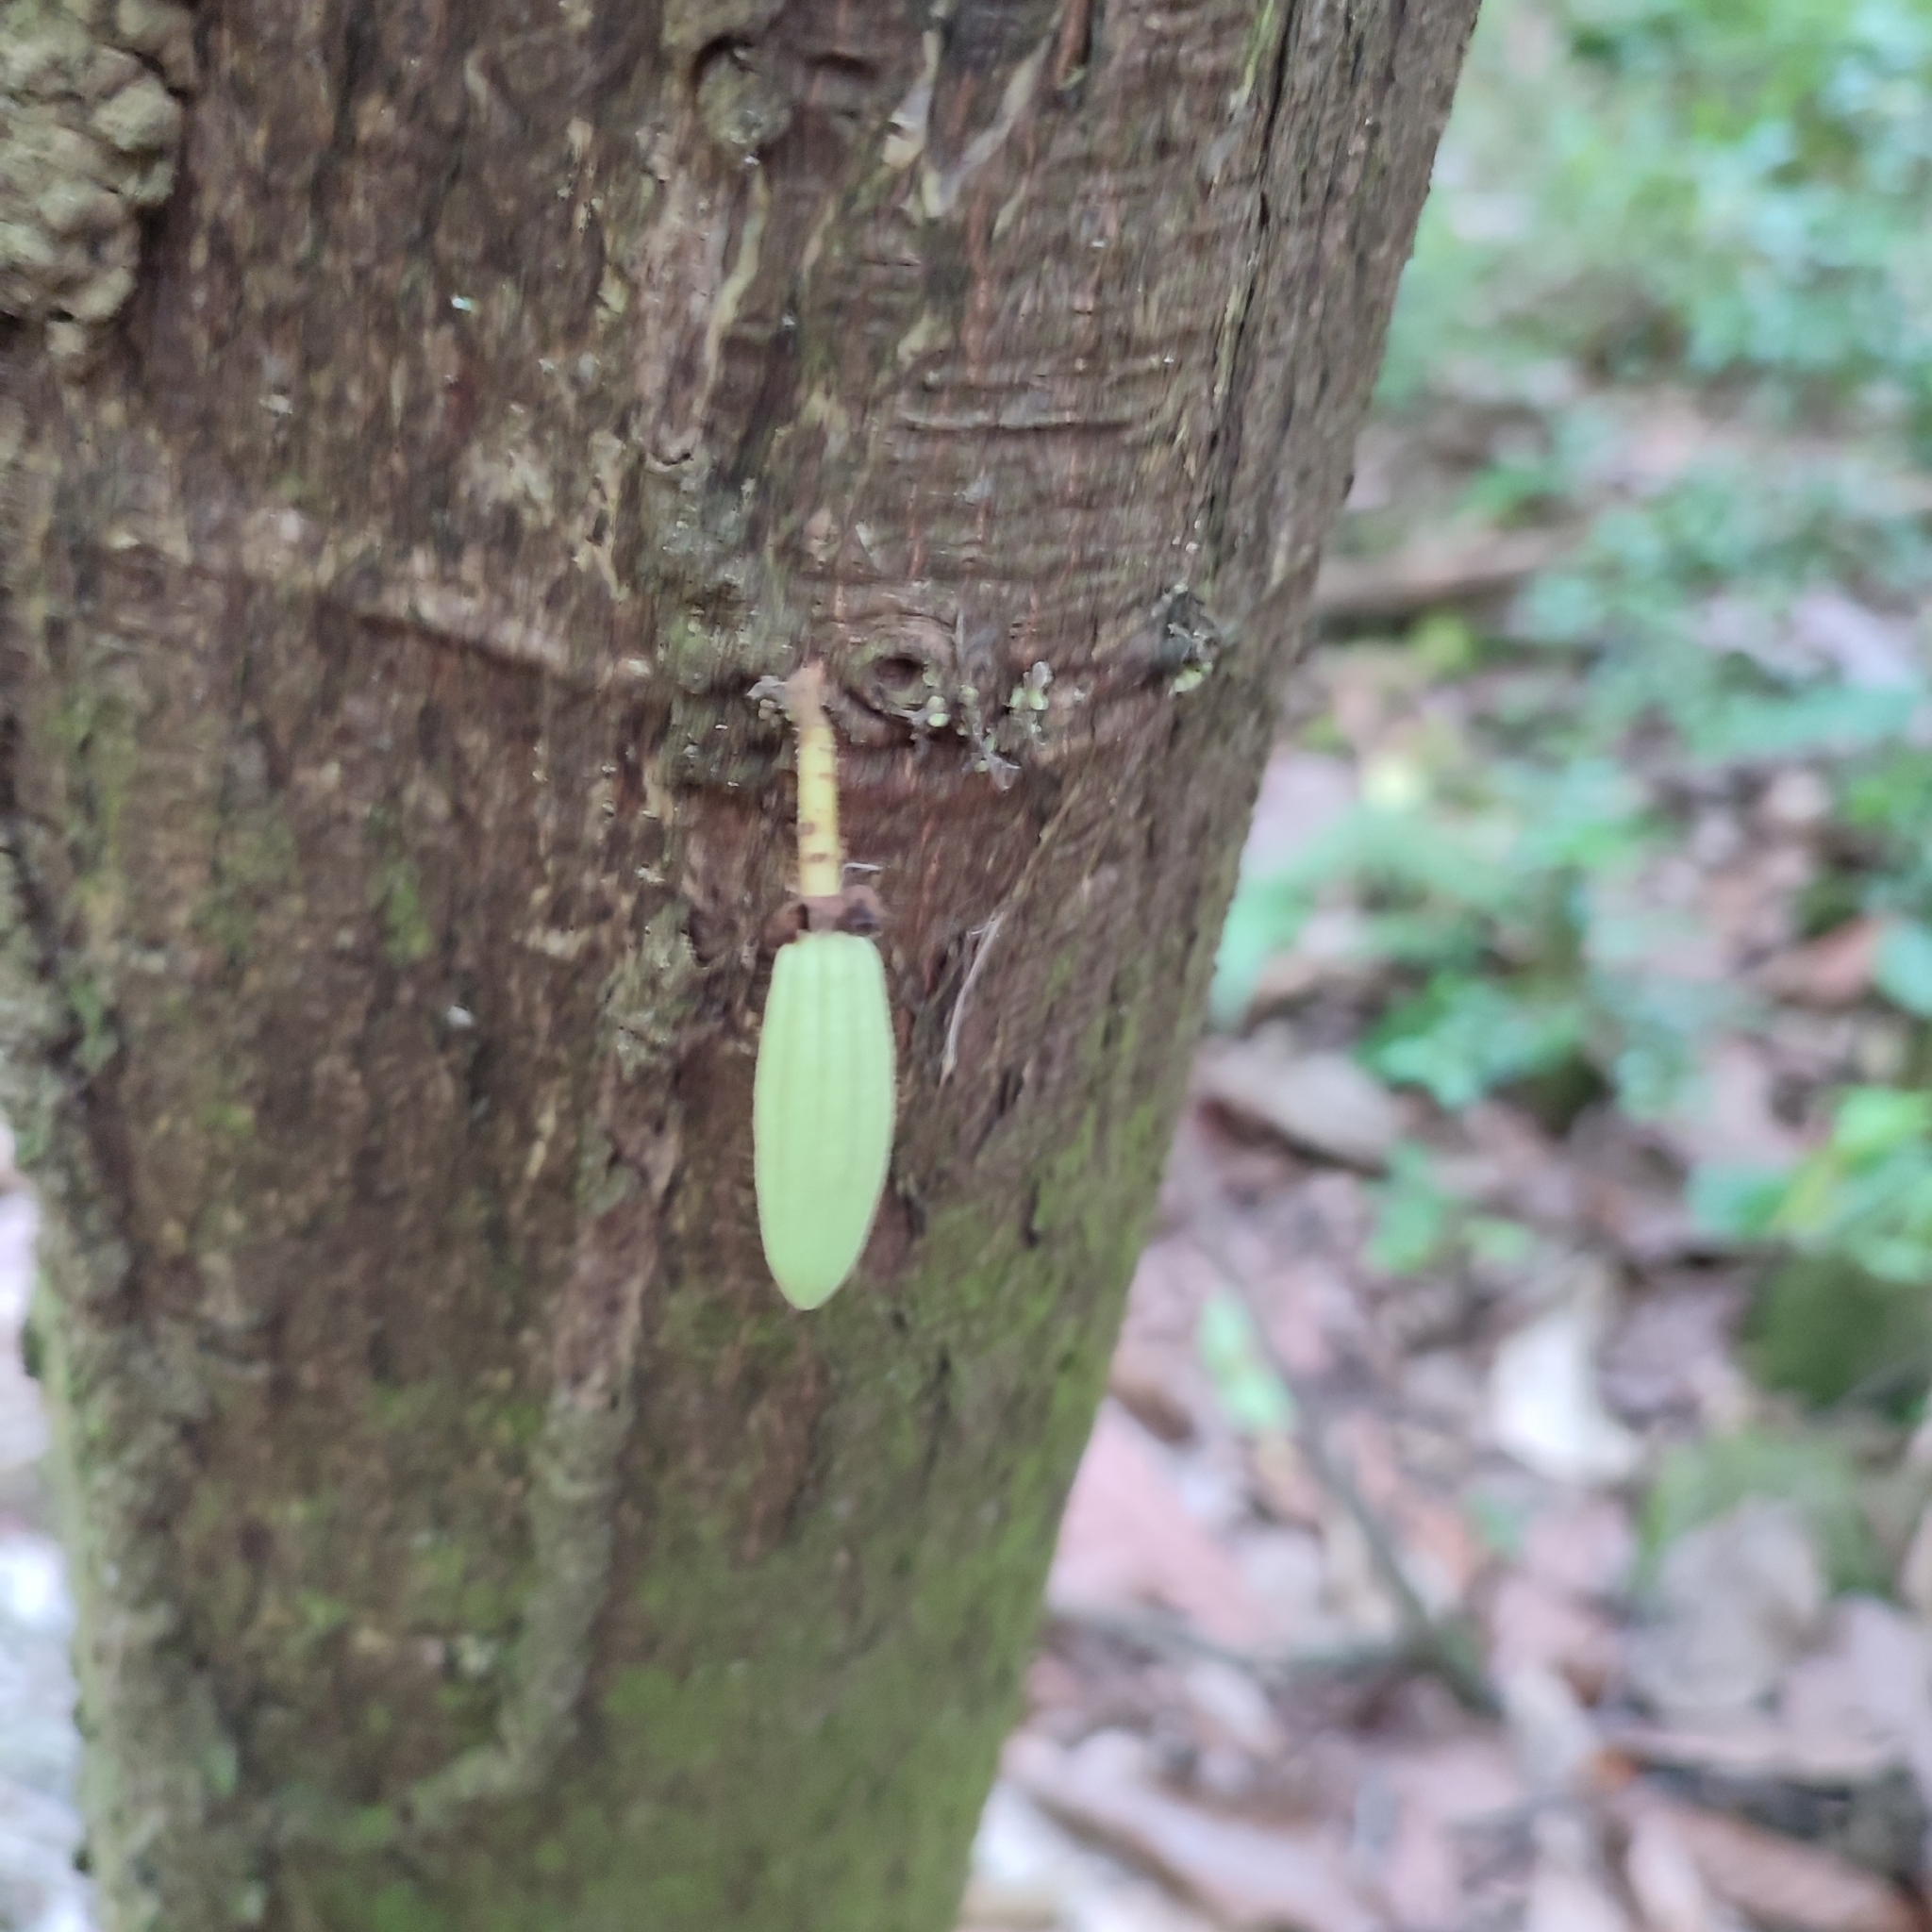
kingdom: Plantae
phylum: Tracheophyta
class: Magnoliopsida
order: Malvales
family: Malvaceae
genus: Theobroma
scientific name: Theobroma cacao
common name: Cocoa
